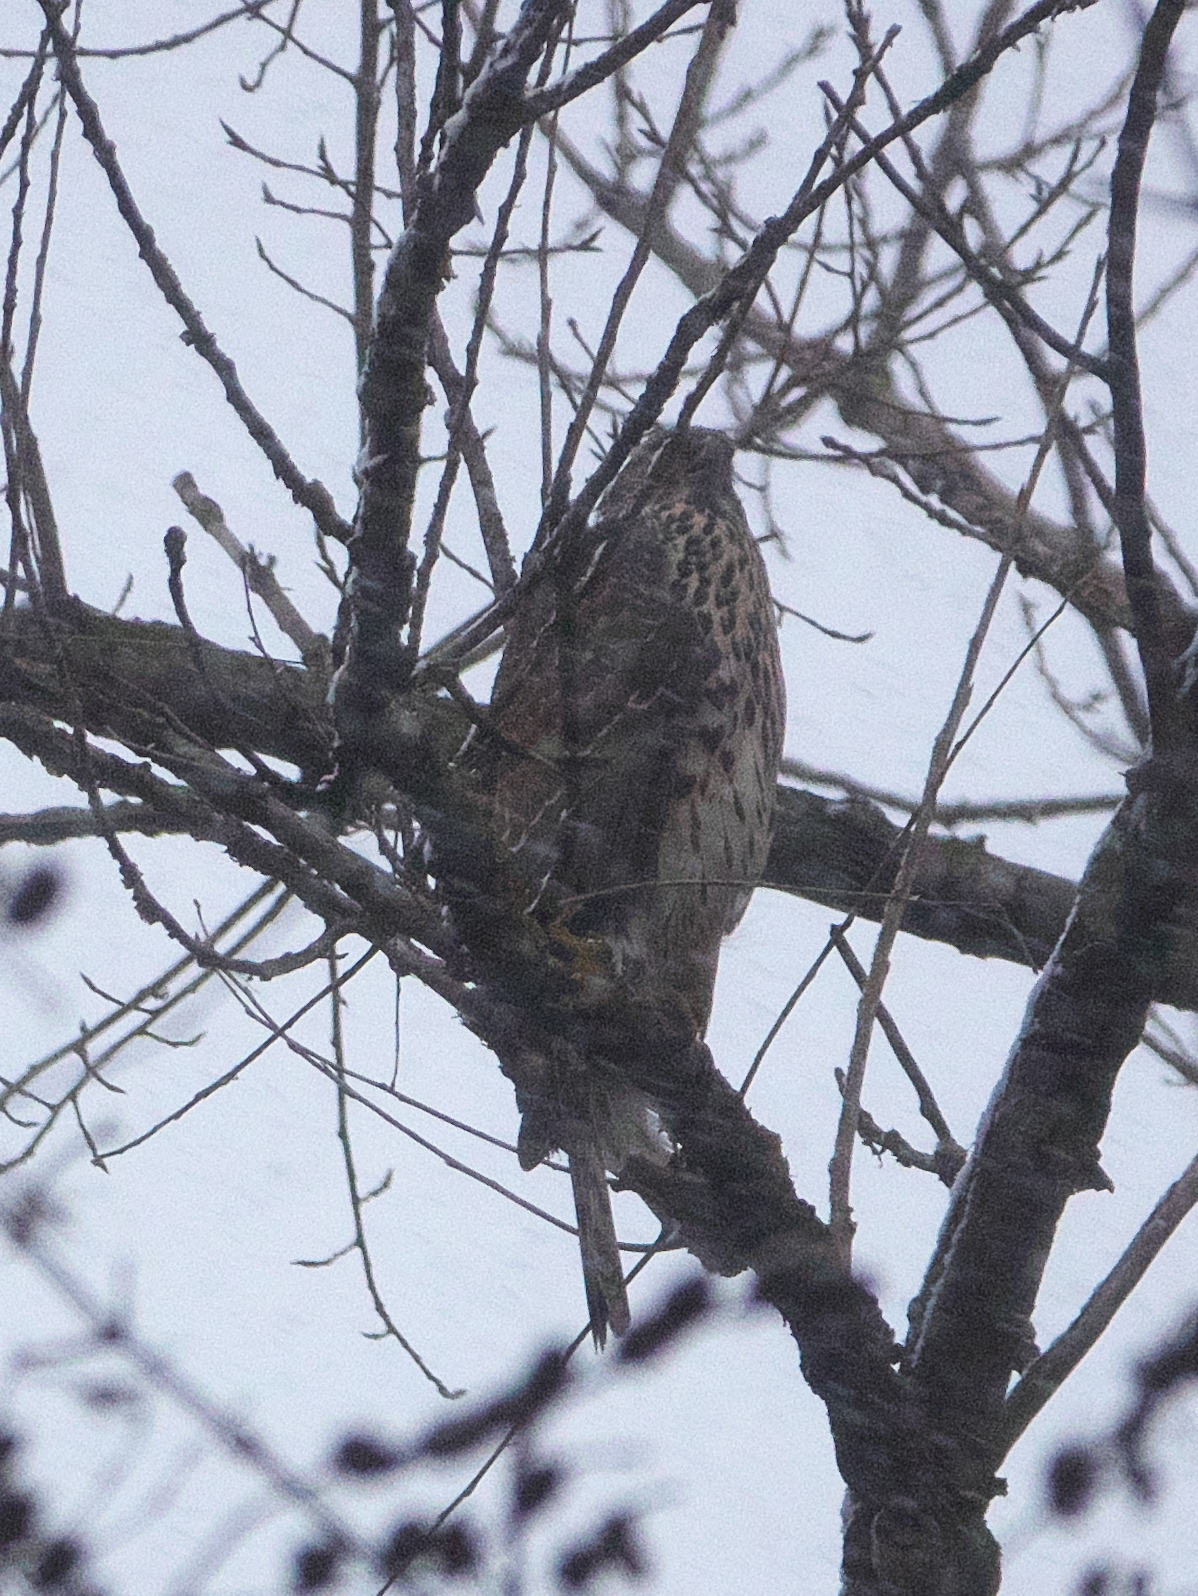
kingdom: Animalia
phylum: Chordata
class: Aves
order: Accipitriformes
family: Accipitridae
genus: Accipiter
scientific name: Accipiter gentilis
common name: Northern goshawk
